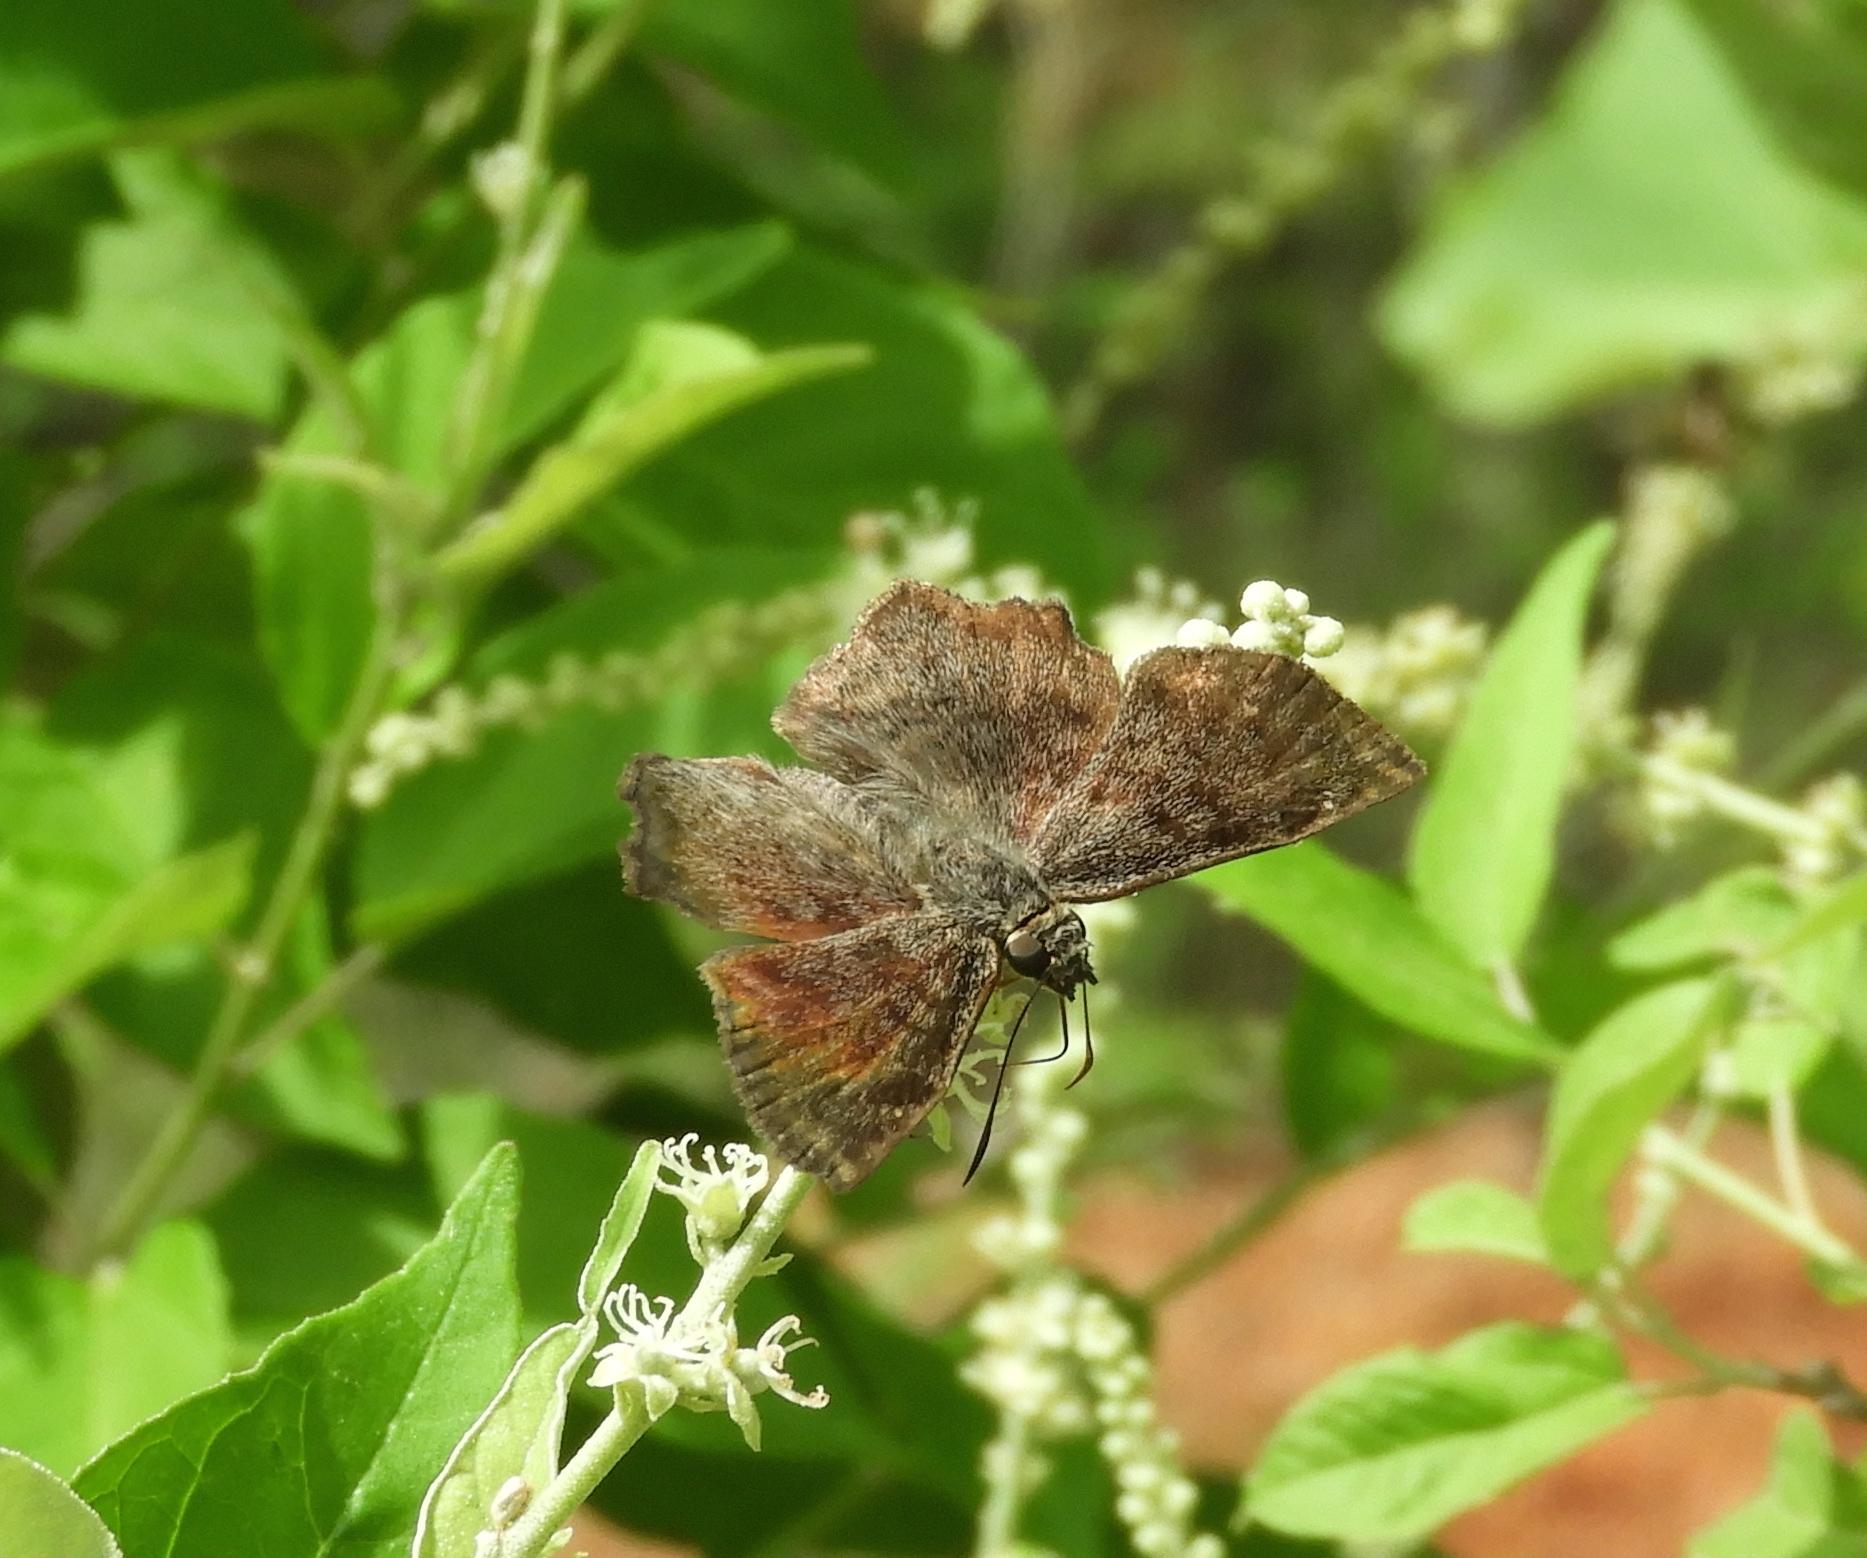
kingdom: Animalia
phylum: Arthropoda
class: Insecta
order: Lepidoptera
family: Hesperiidae
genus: Antigonus
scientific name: Antigonus erosus
